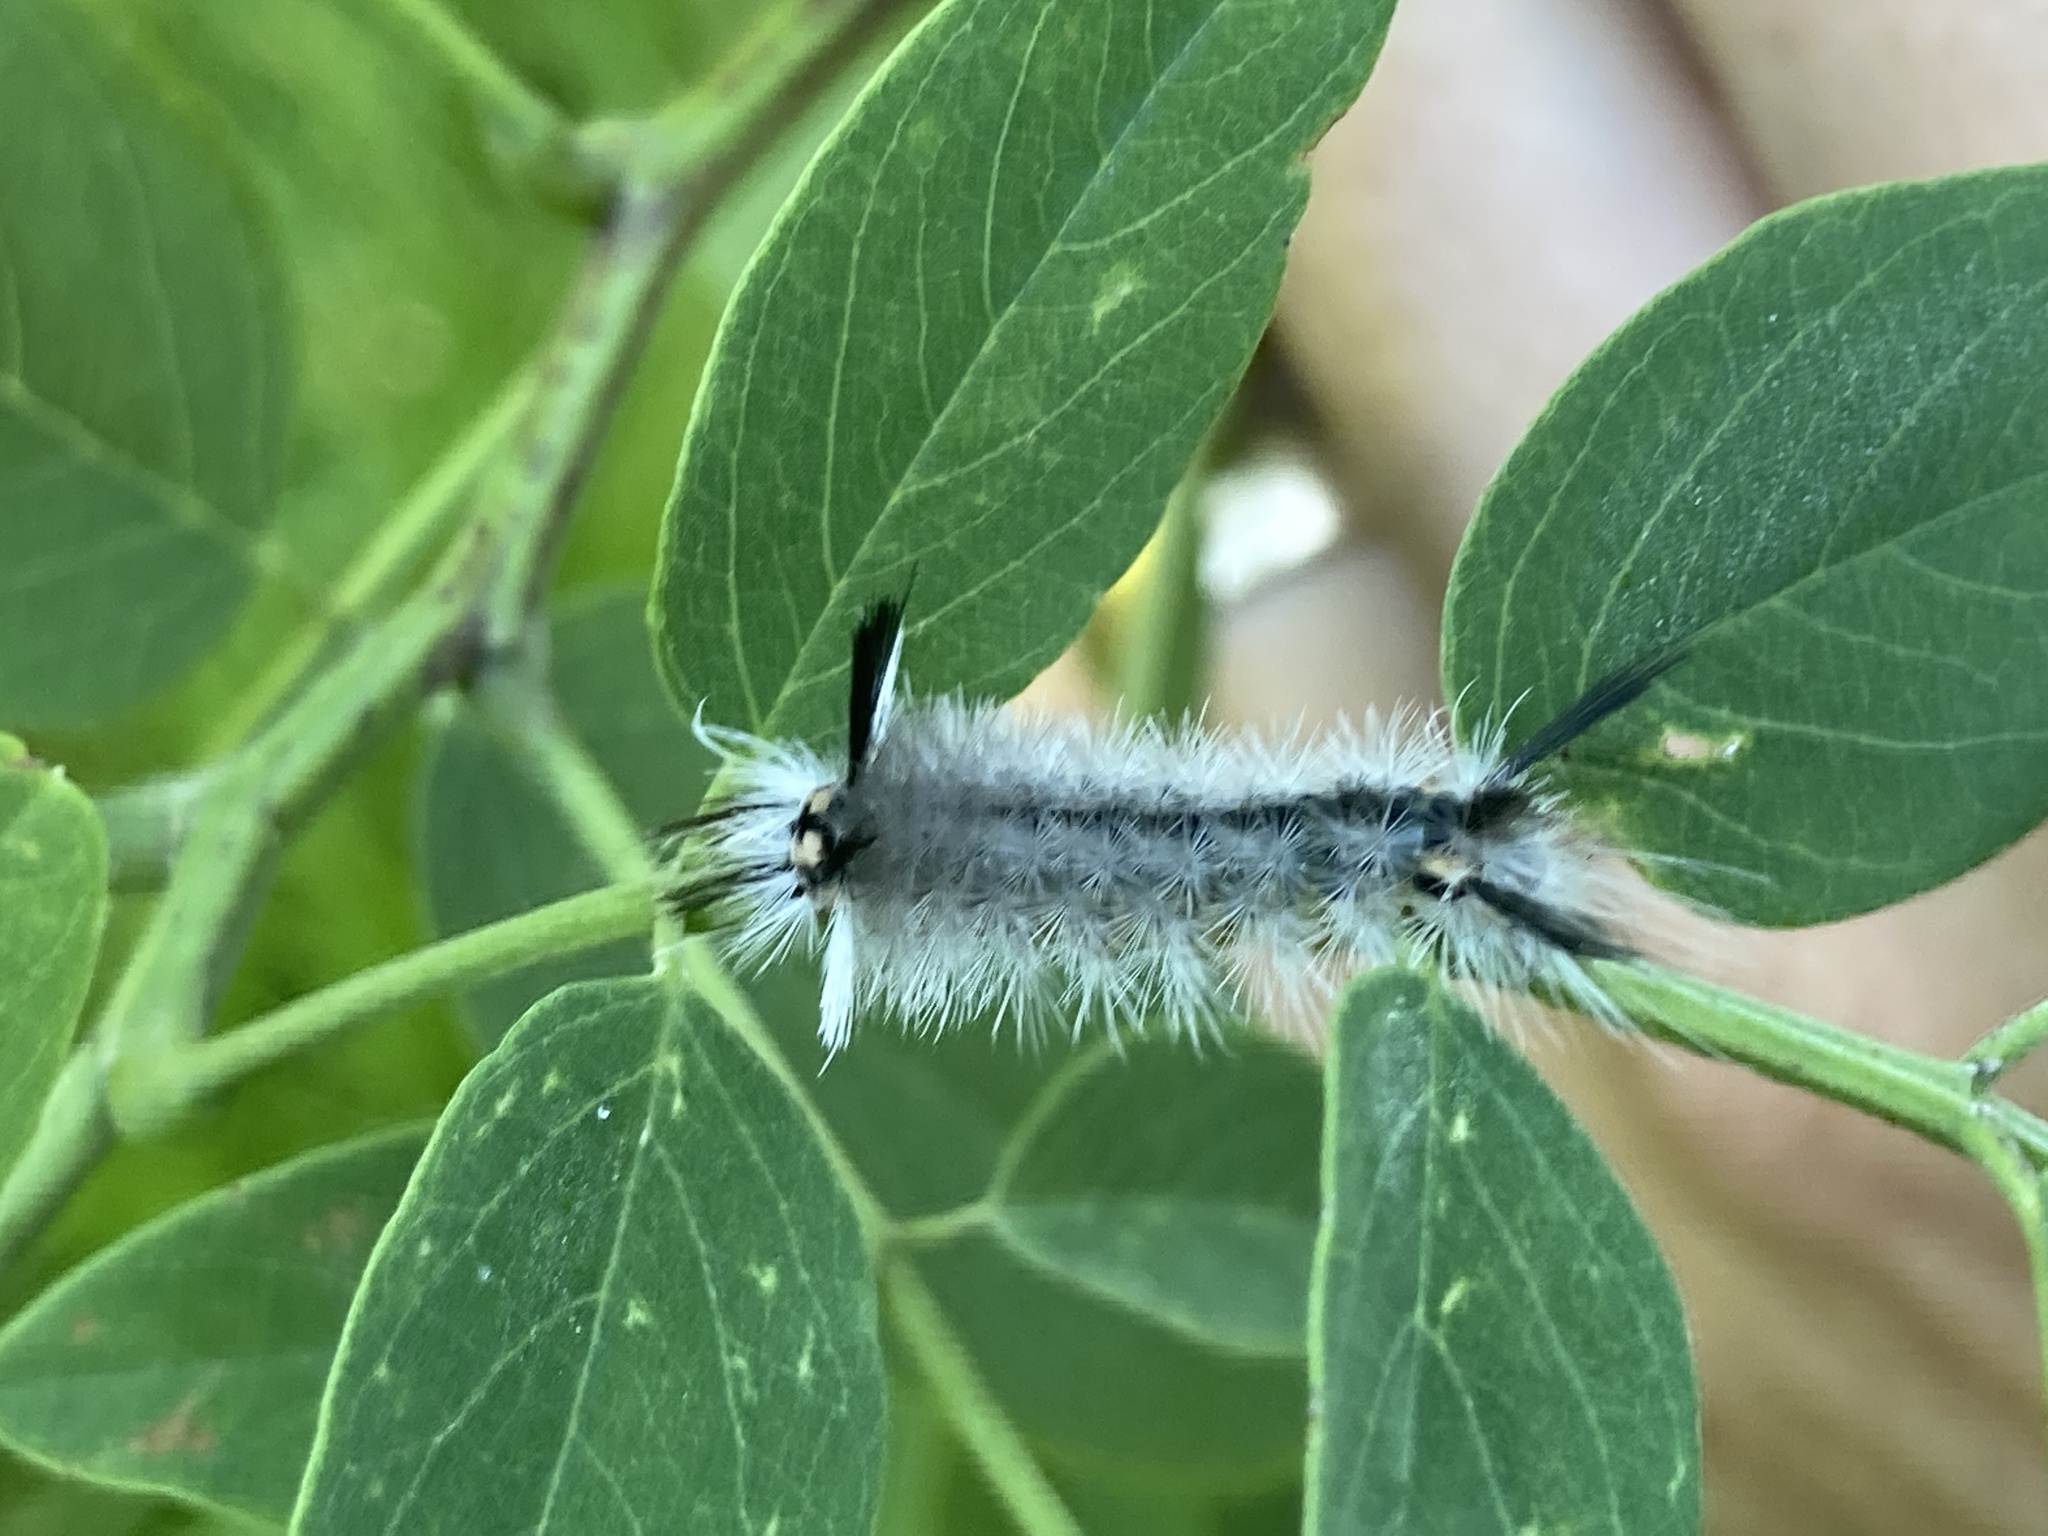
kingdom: Animalia
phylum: Arthropoda
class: Insecta
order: Lepidoptera
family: Erebidae
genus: Halysidota
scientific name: Halysidota tessellaris
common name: Banded tussock moth
